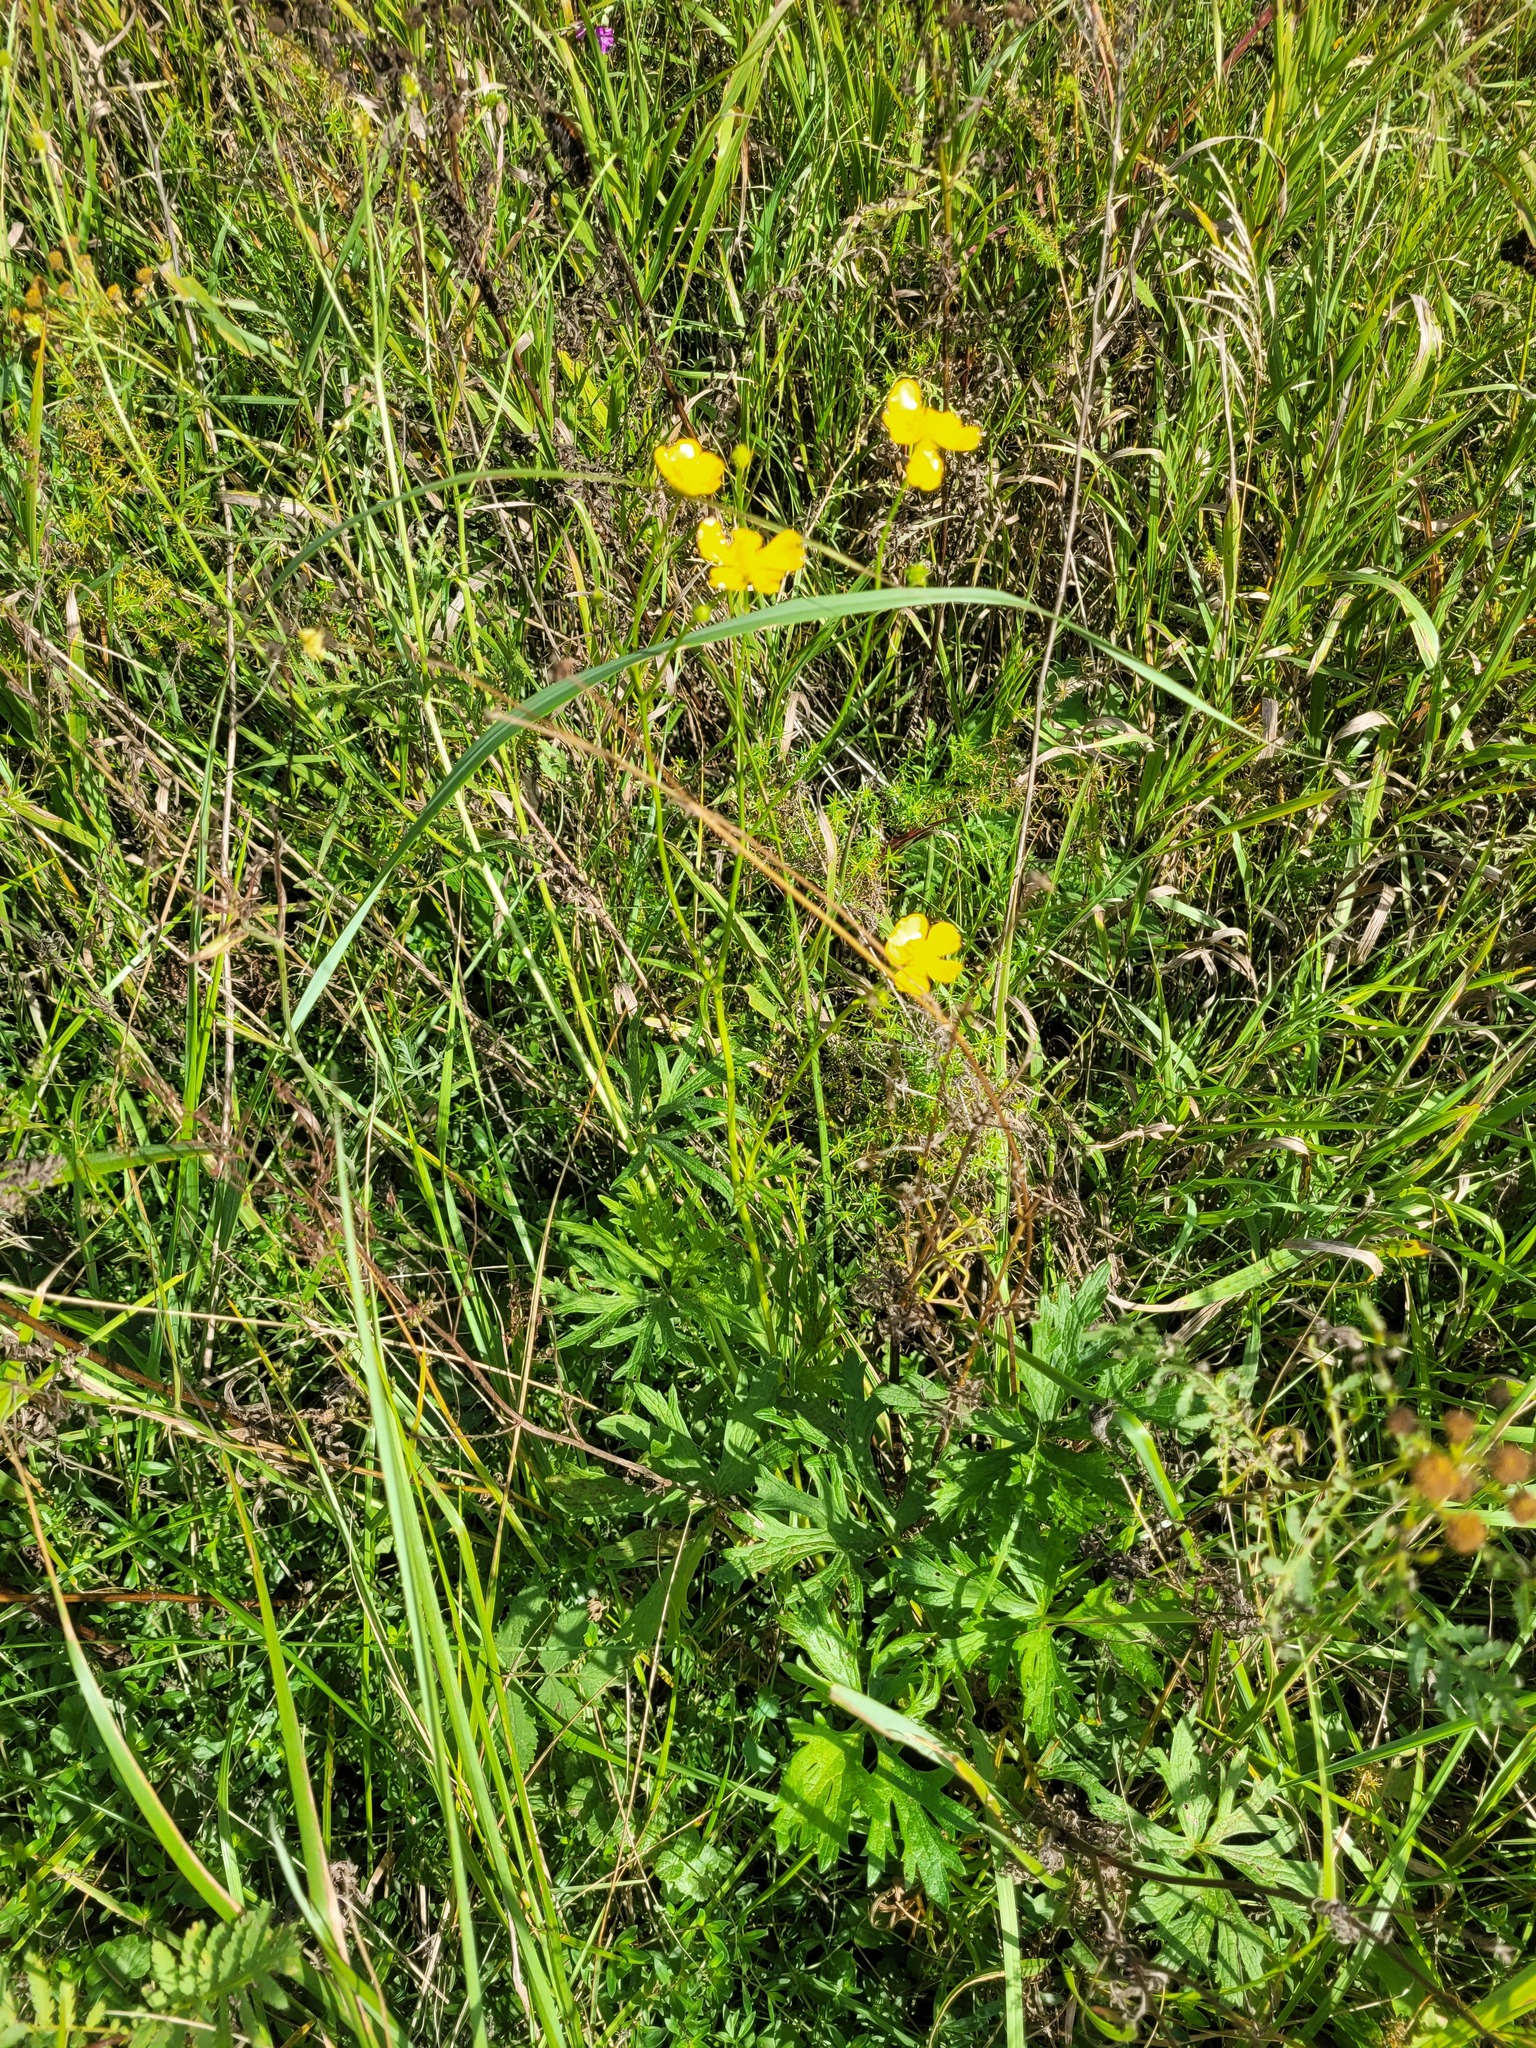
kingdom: Plantae
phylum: Tracheophyta
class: Magnoliopsida
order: Ranunculales
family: Ranunculaceae
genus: Ranunculus
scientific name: Ranunculus acris
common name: Meadow buttercup
